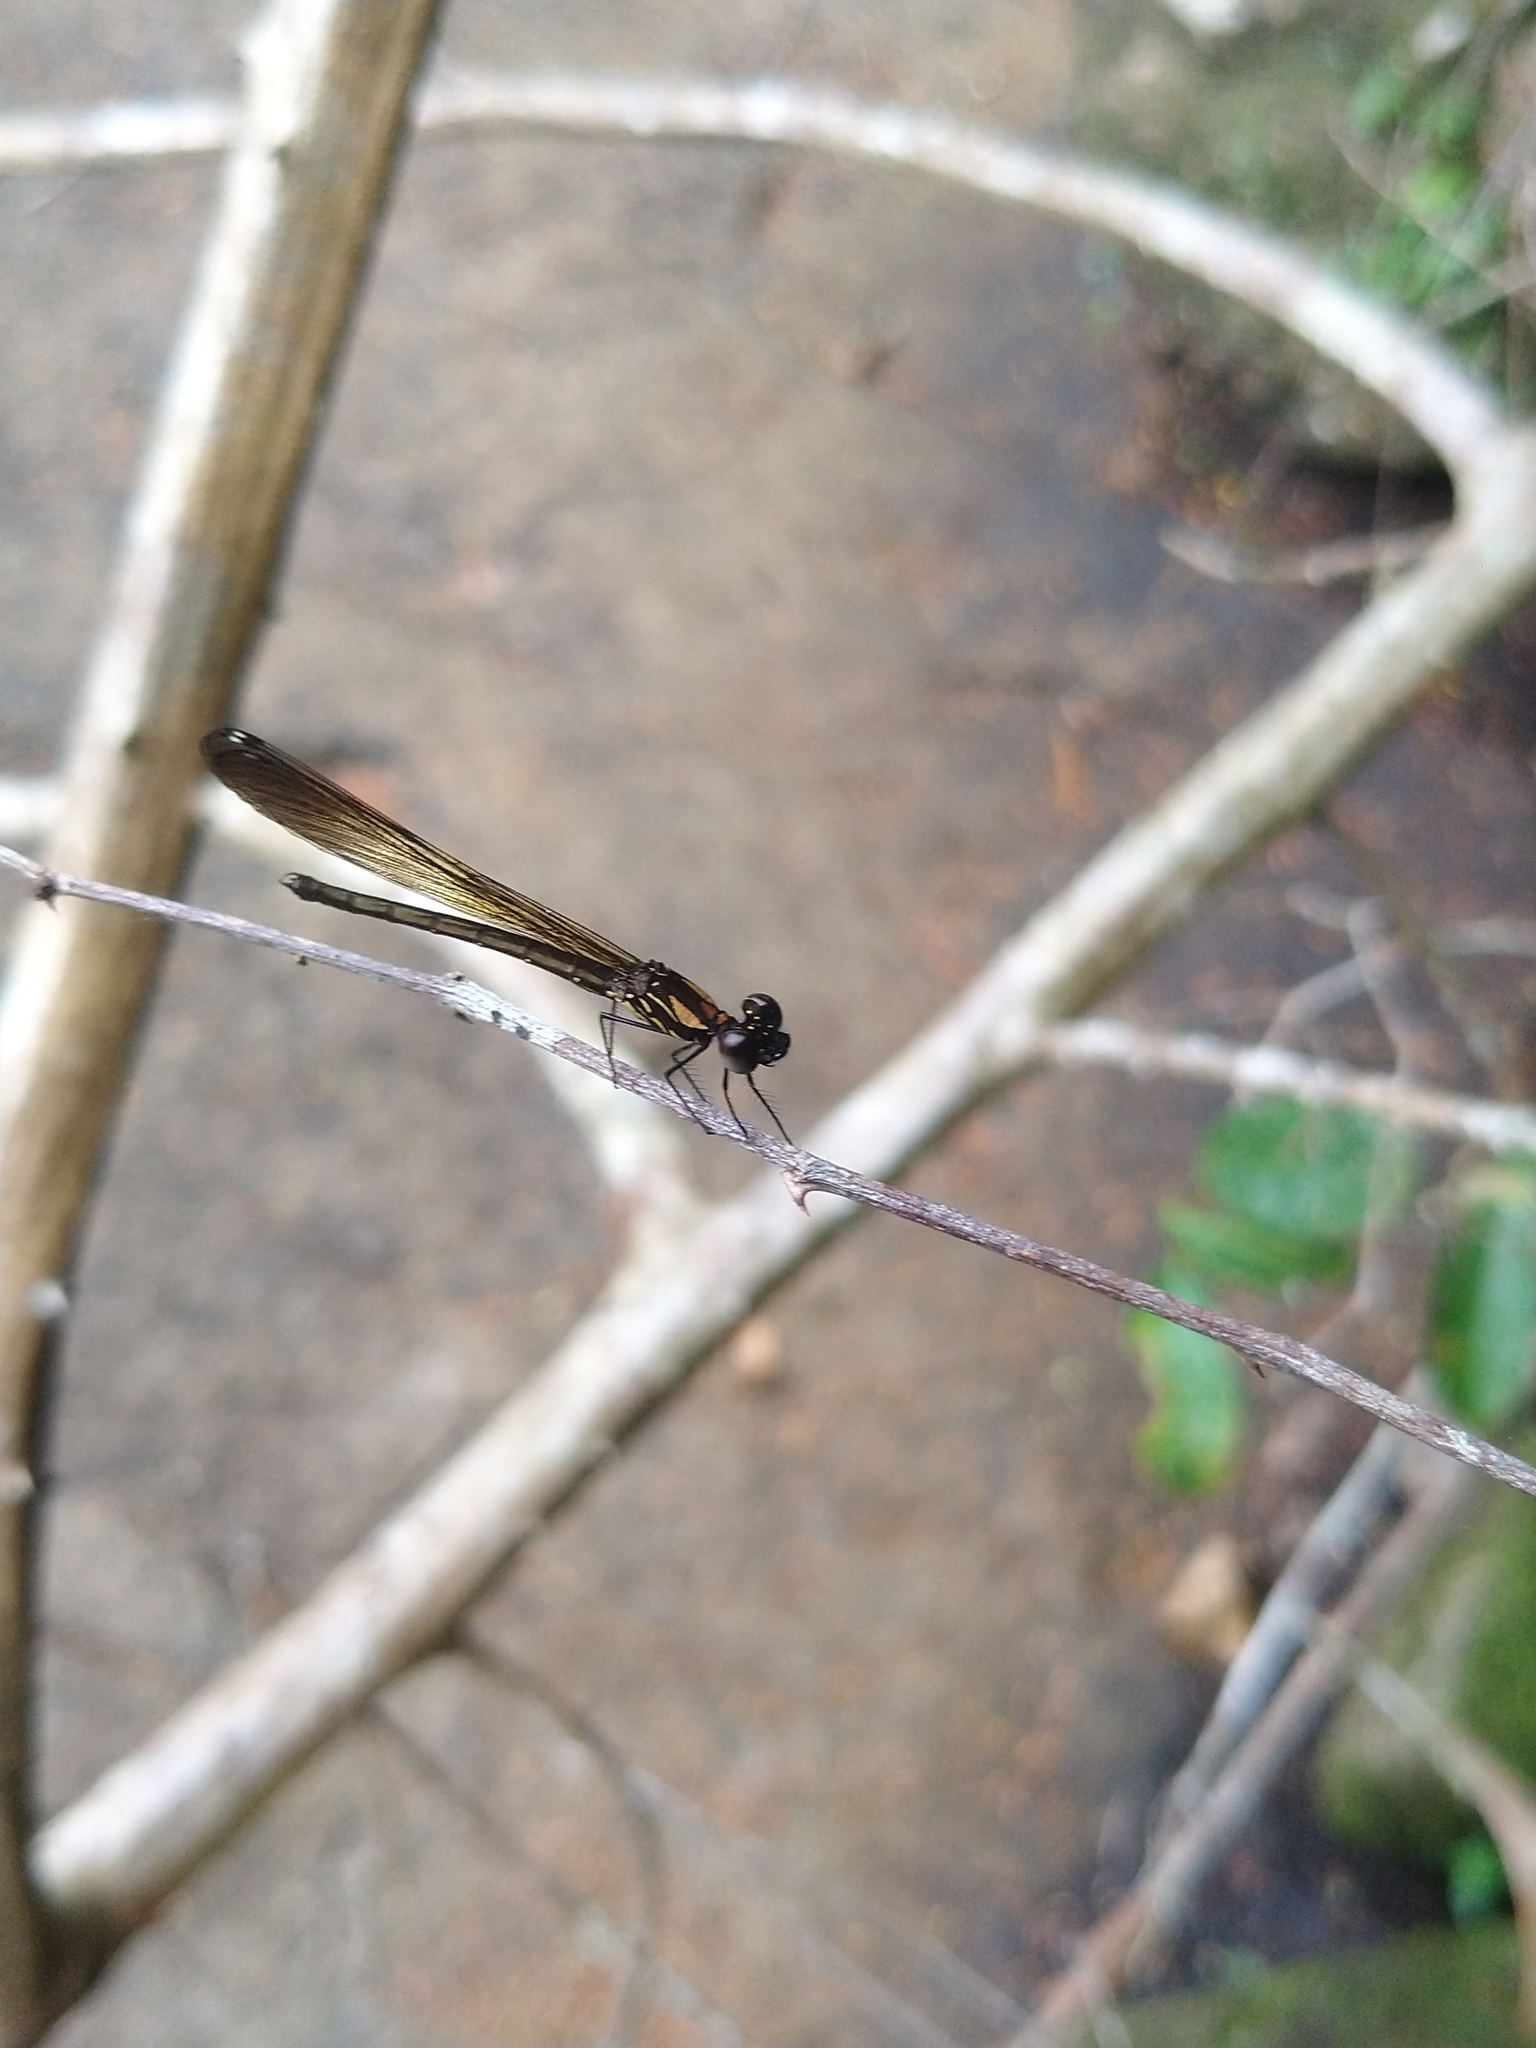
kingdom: Animalia
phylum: Arthropoda
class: Insecta
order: Odonata
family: Chlorocyphidae
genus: Heliocypha
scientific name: Heliocypha bisignata
